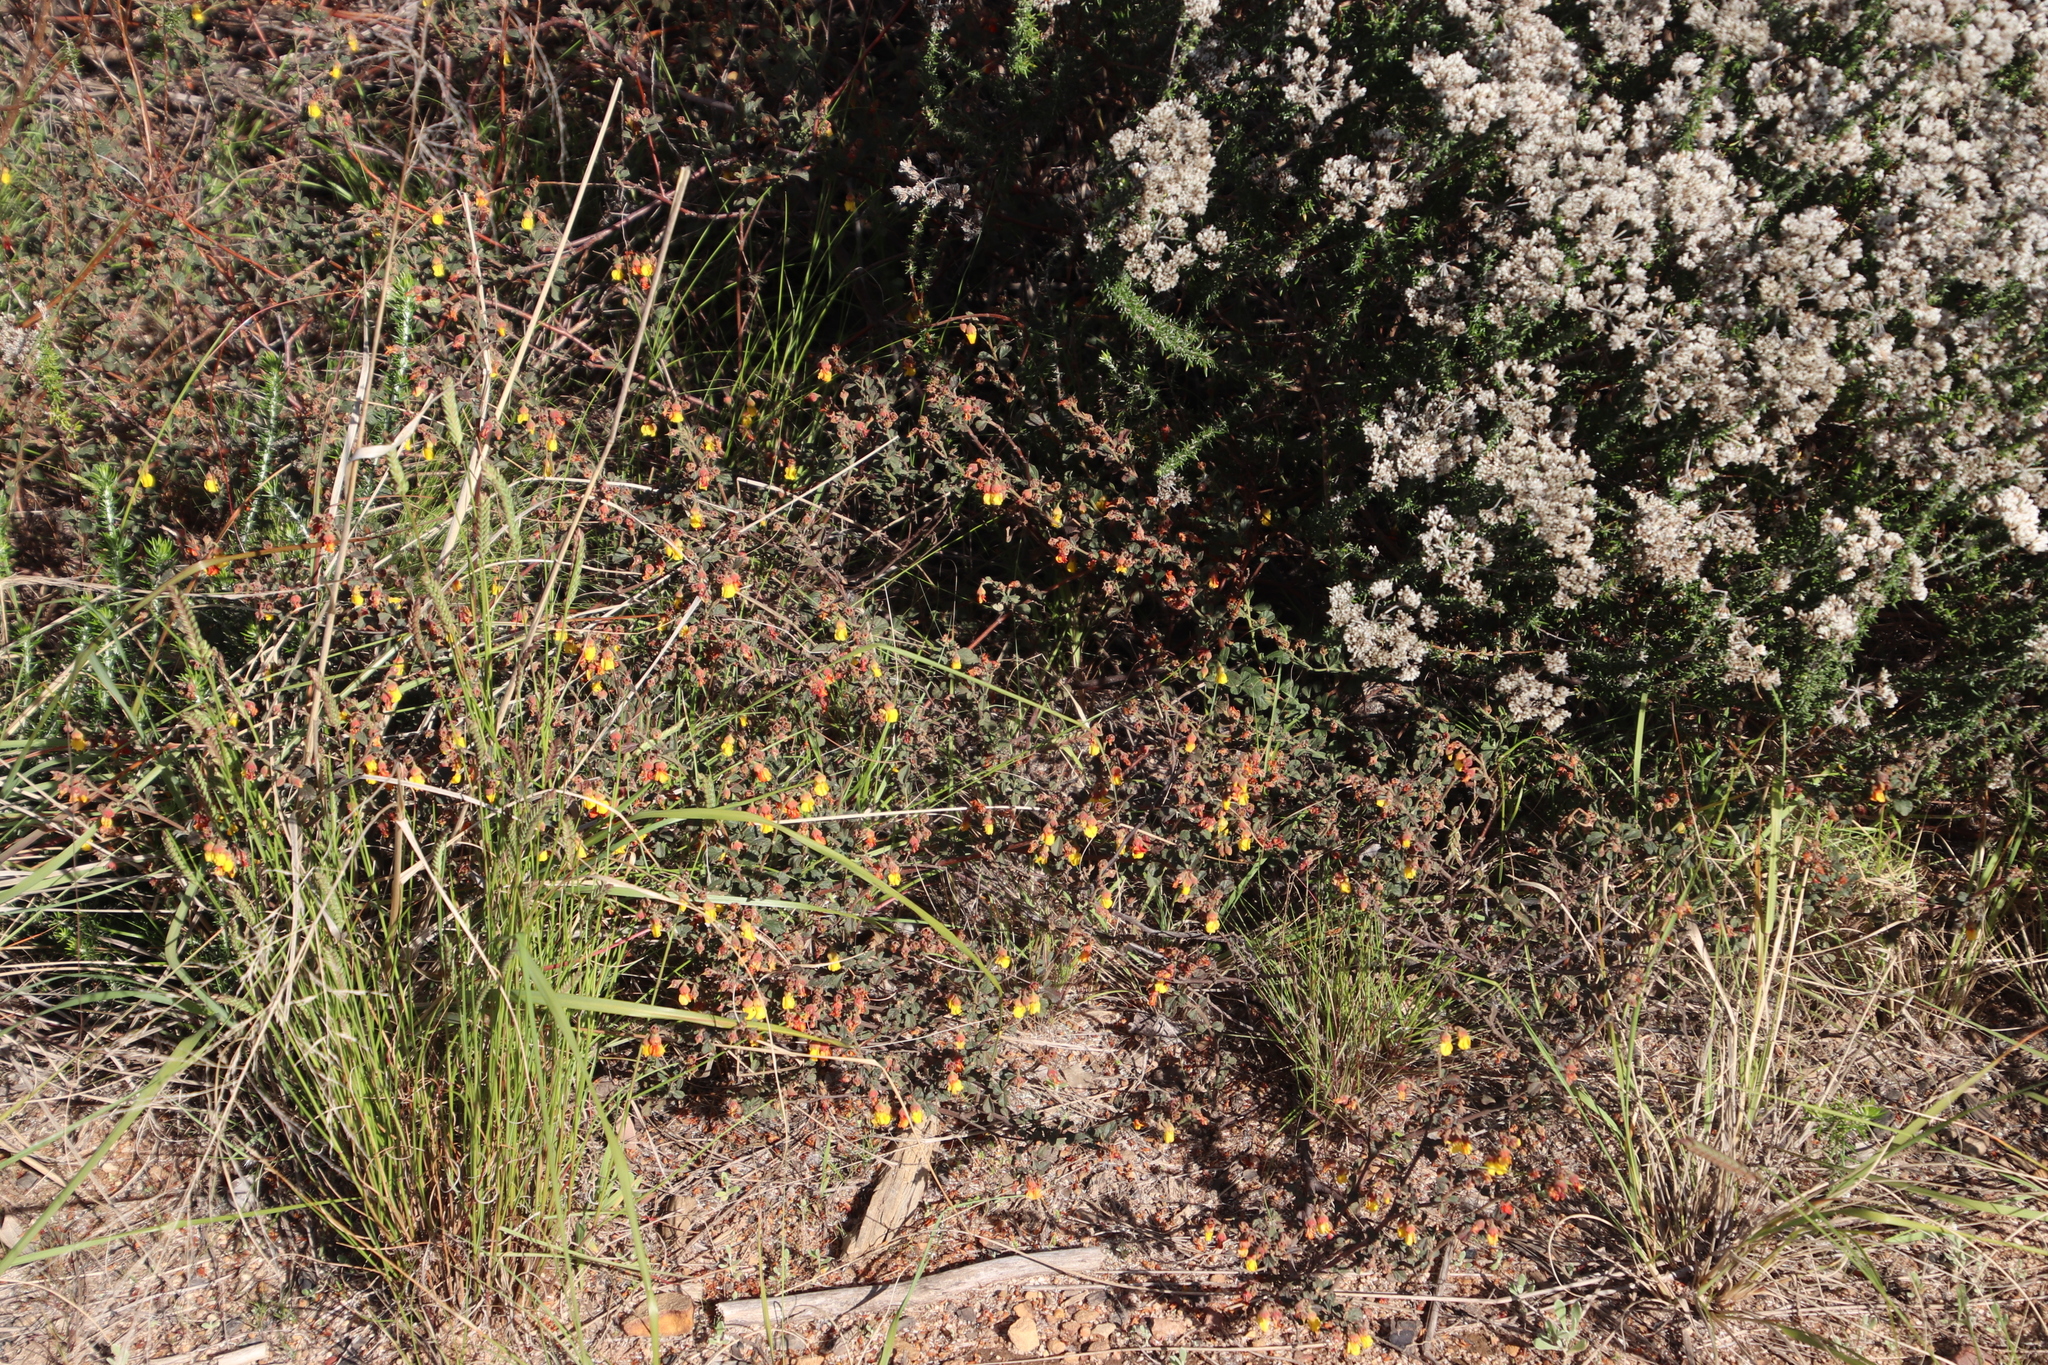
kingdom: Plantae
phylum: Tracheophyta
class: Magnoliopsida
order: Malvales
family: Malvaceae
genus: Hermannia
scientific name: Hermannia multiflora
